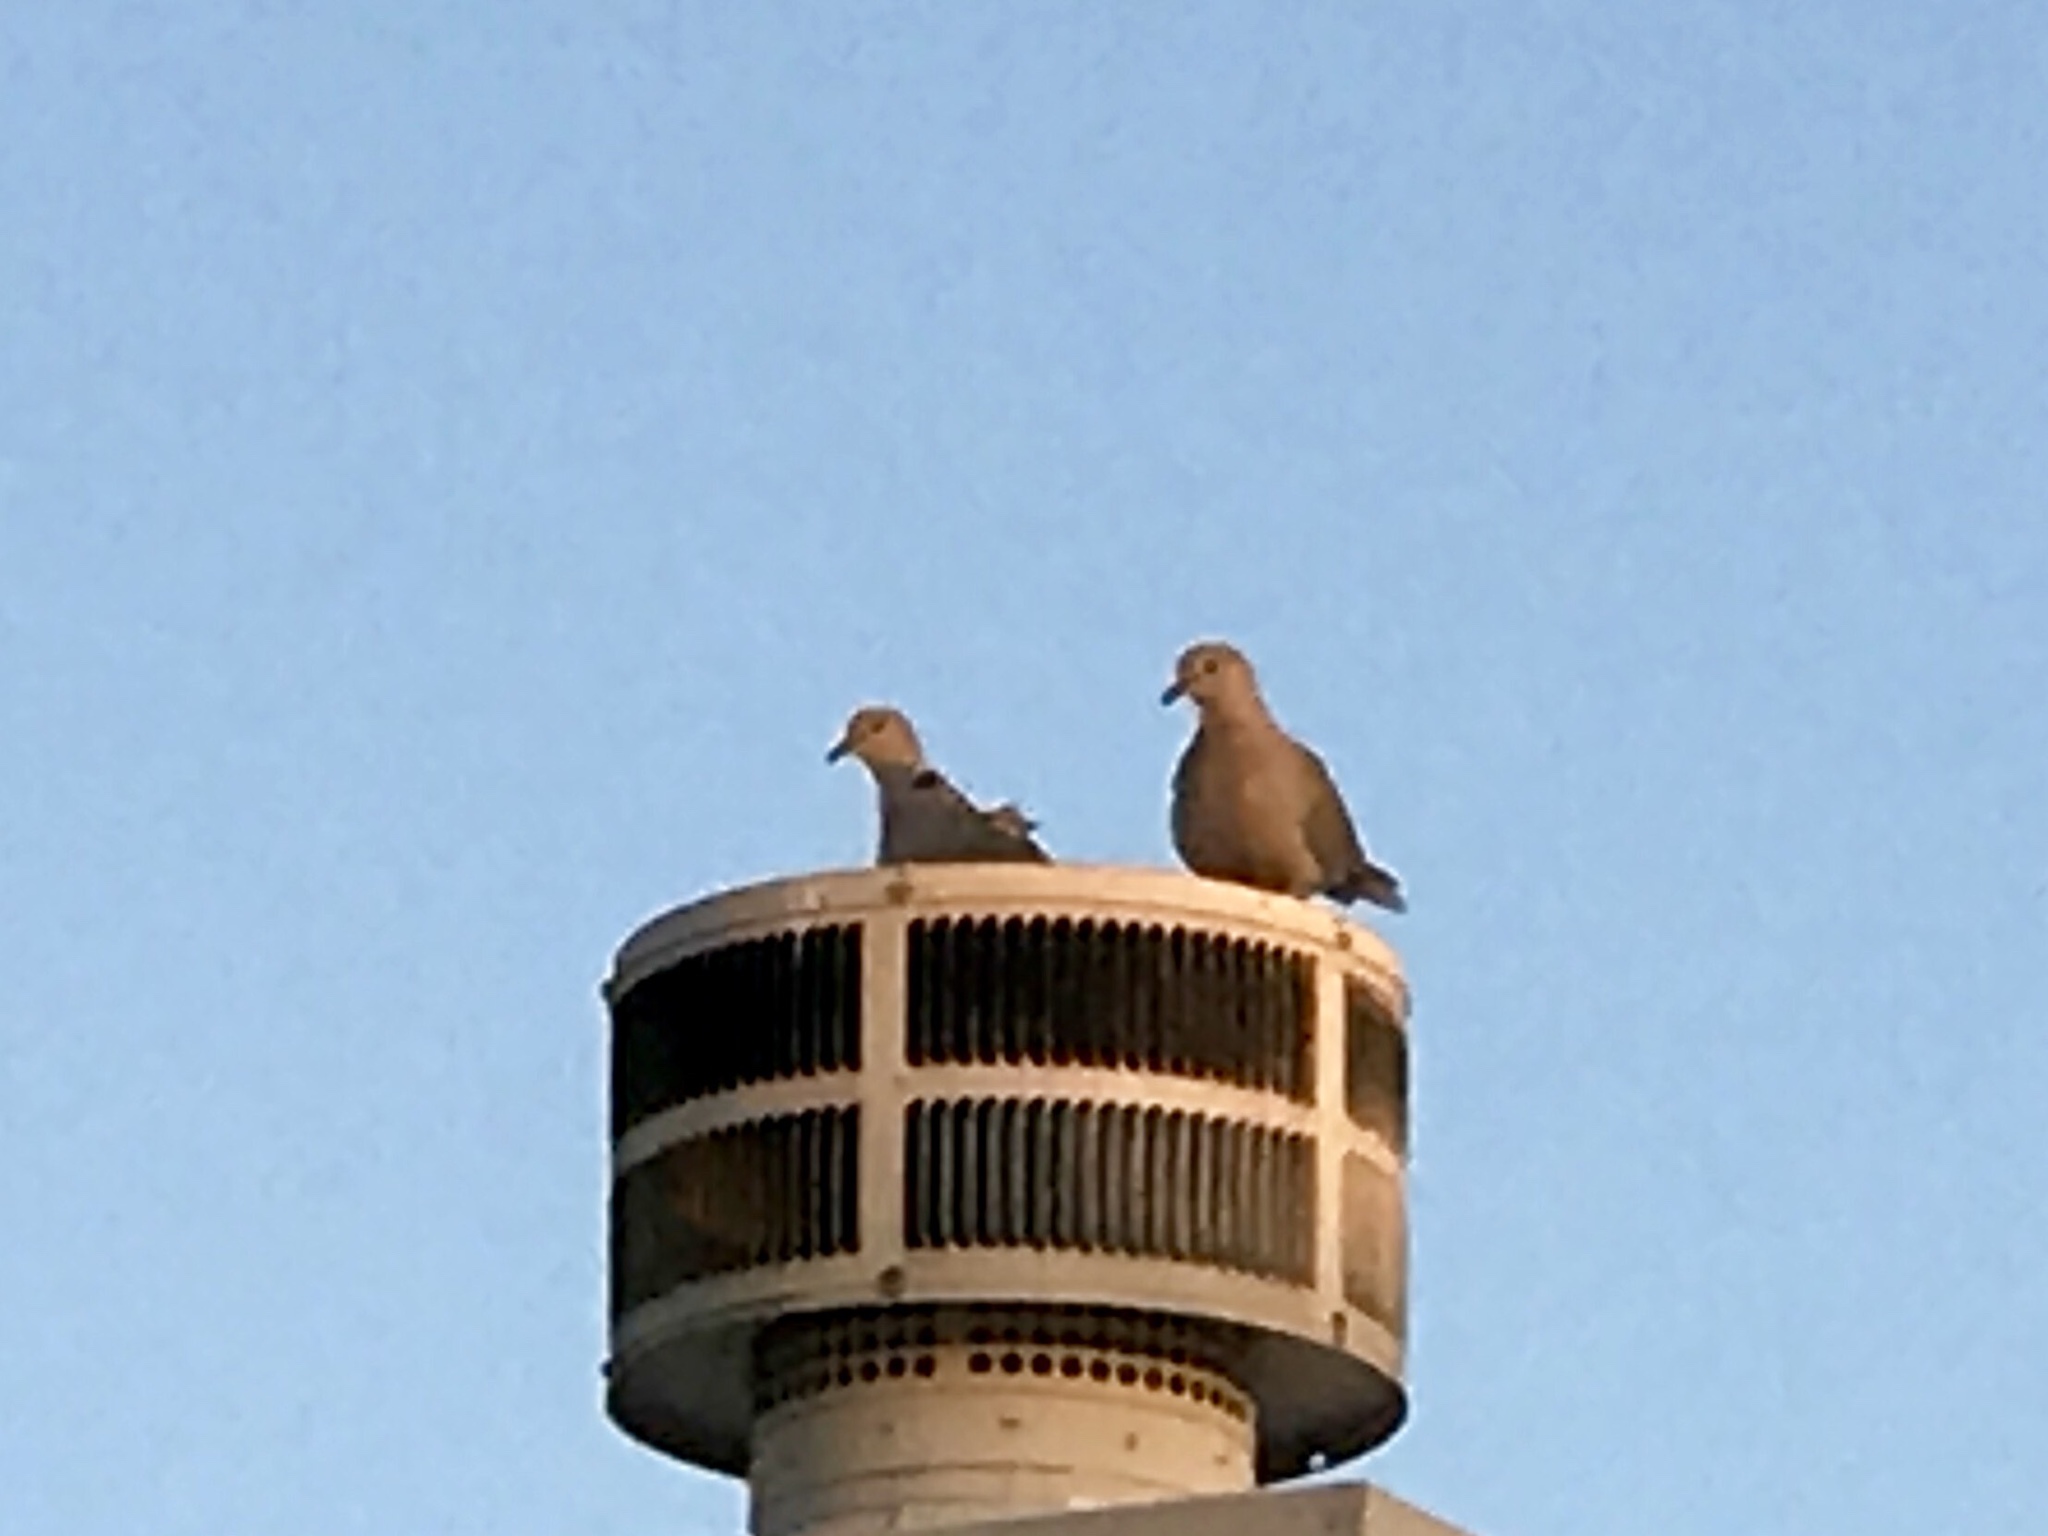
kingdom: Animalia
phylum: Chordata
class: Aves
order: Columbiformes
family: Columbidae
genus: Streptopelia
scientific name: Streptopelia decaocto
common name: Eurasian collared dove
